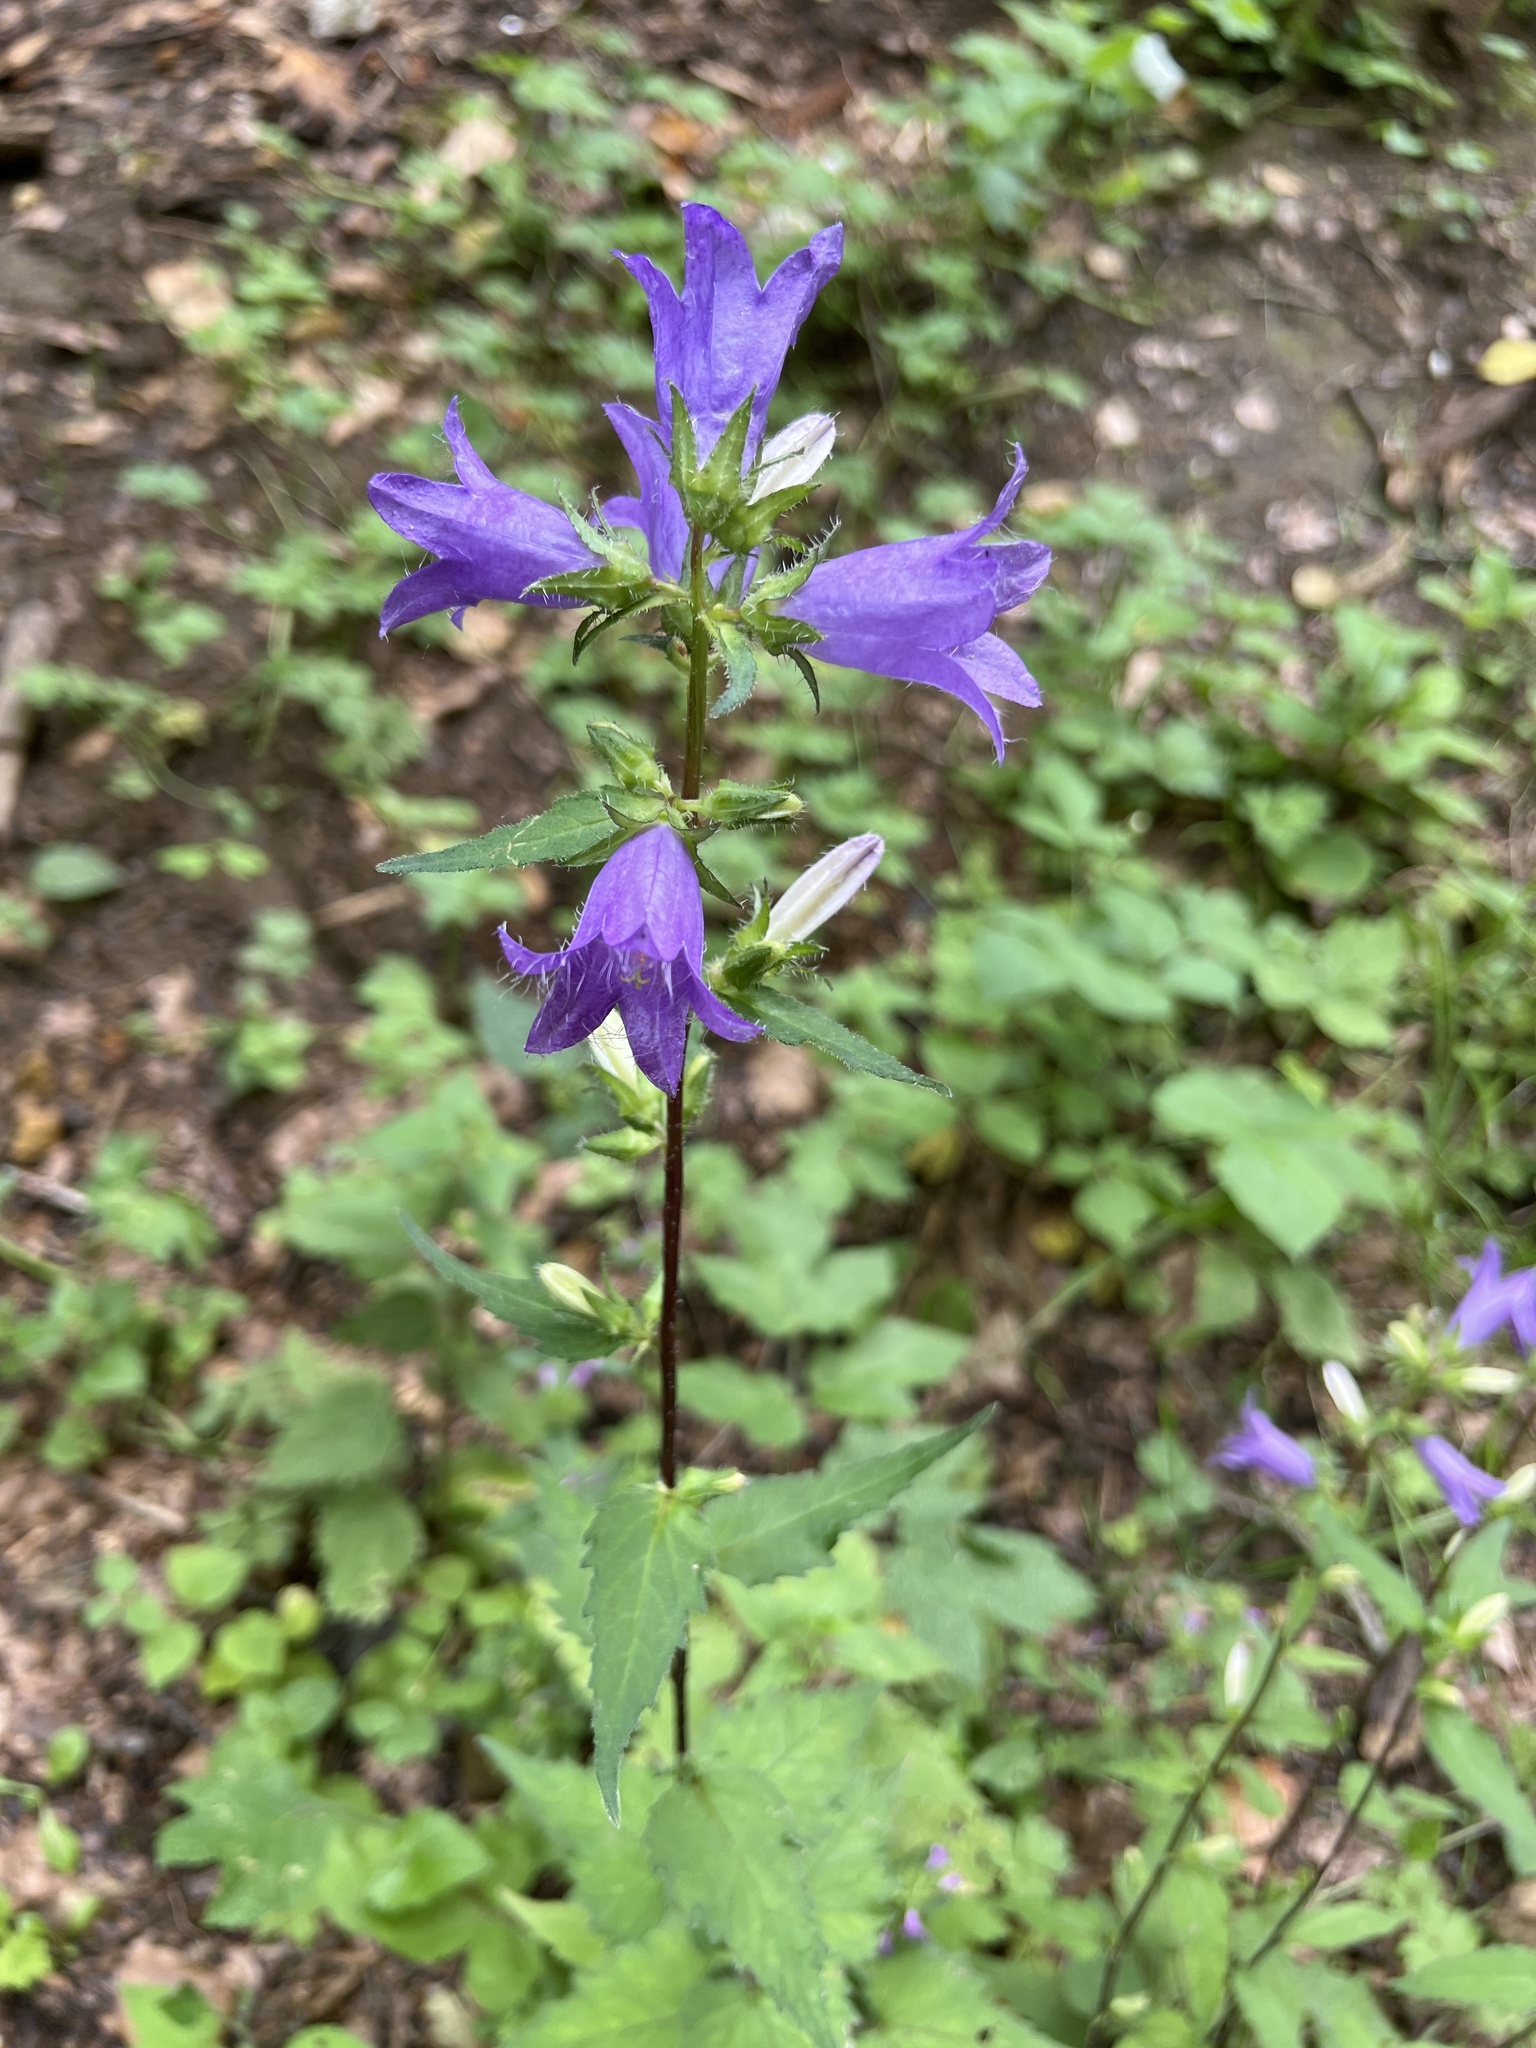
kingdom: Plantae
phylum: Tracheophyta
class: Magnoliopsida
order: Asterales
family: Campanulaceae
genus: Campanula
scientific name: Campanula trachelium
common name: Nettle-leaved bellflower
